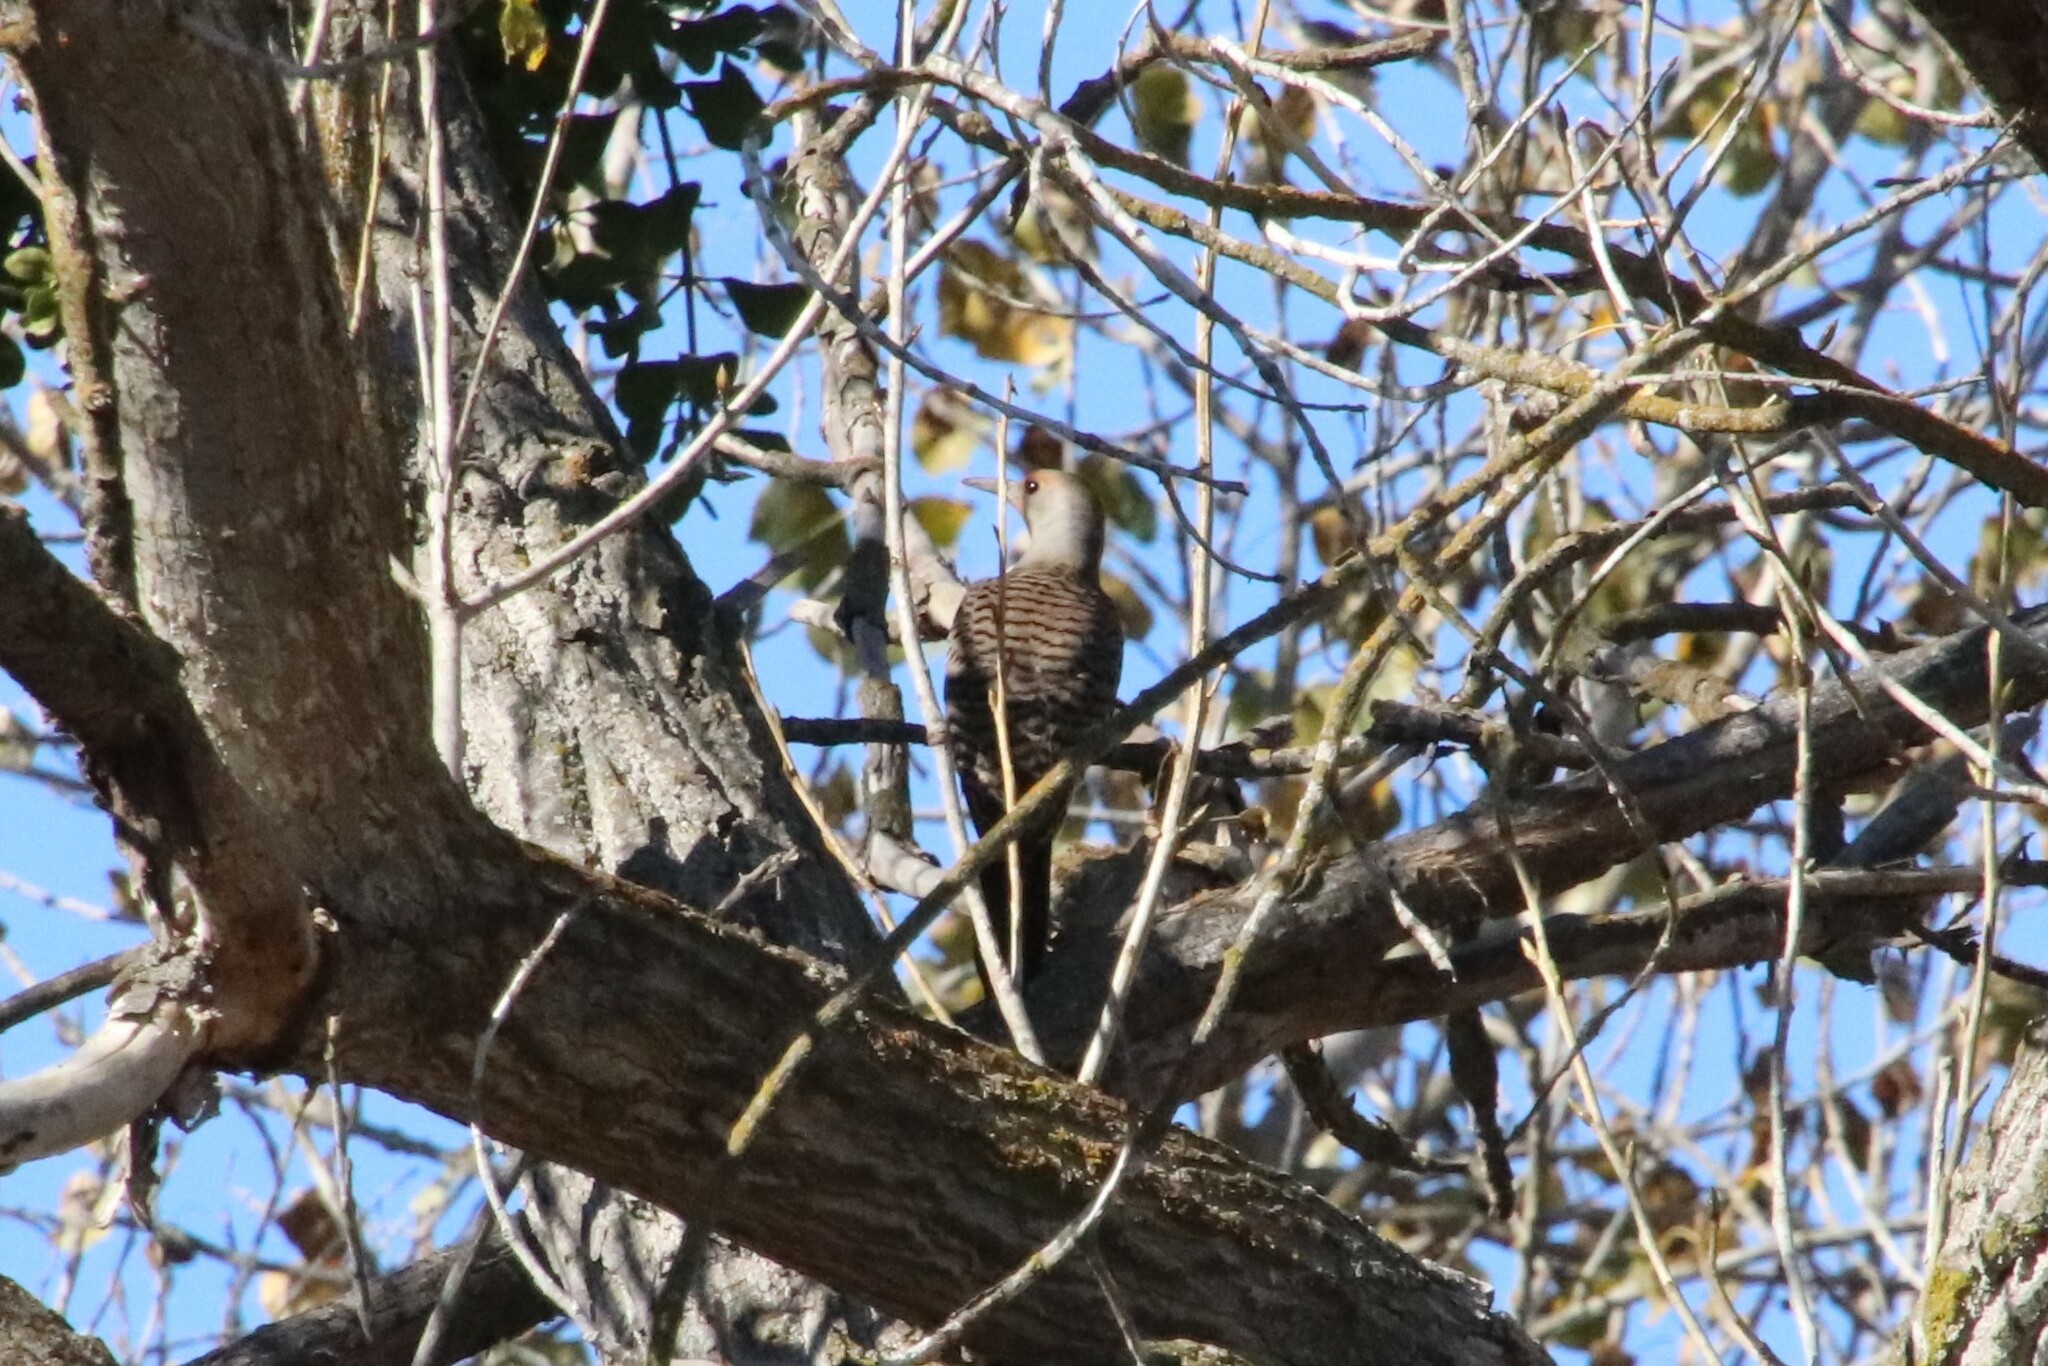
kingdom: Animalia
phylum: Chordata
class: Aves
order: Piciformes
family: Picidae
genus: Colaptes
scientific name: Colaptes auratus
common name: Northern flicker
